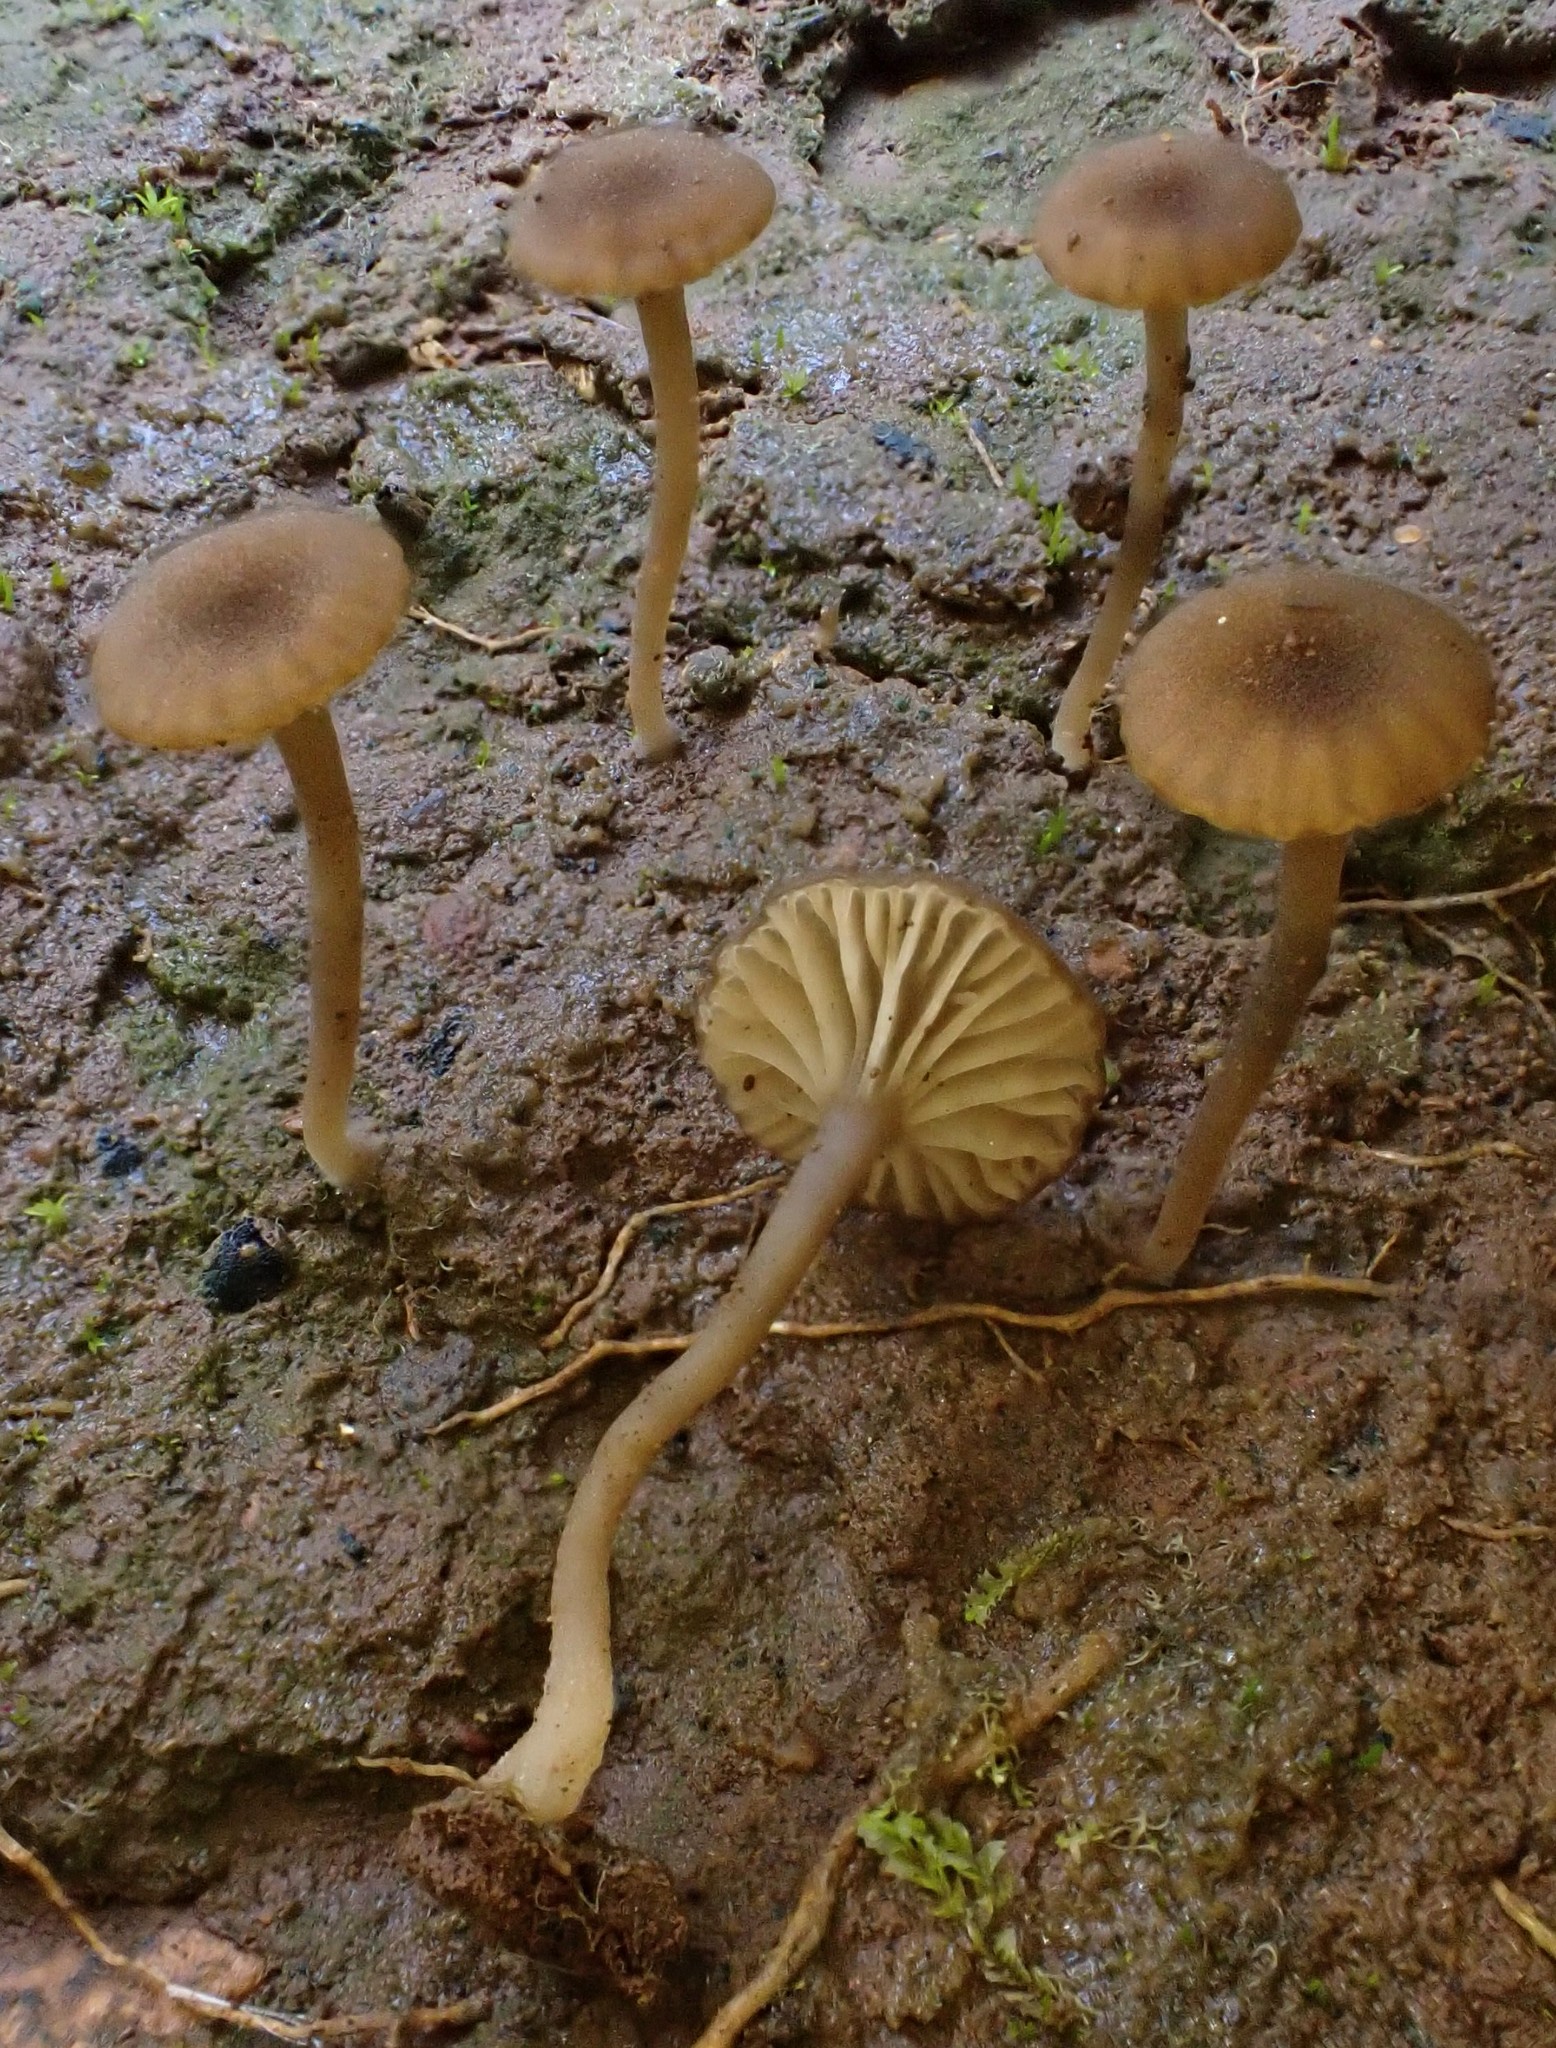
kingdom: Fungi
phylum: Basidiomycota
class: Agaricomycetes
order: Agaricales
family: Hygrophoraceae
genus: Lichenomphalia
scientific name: Lichenomphalia
